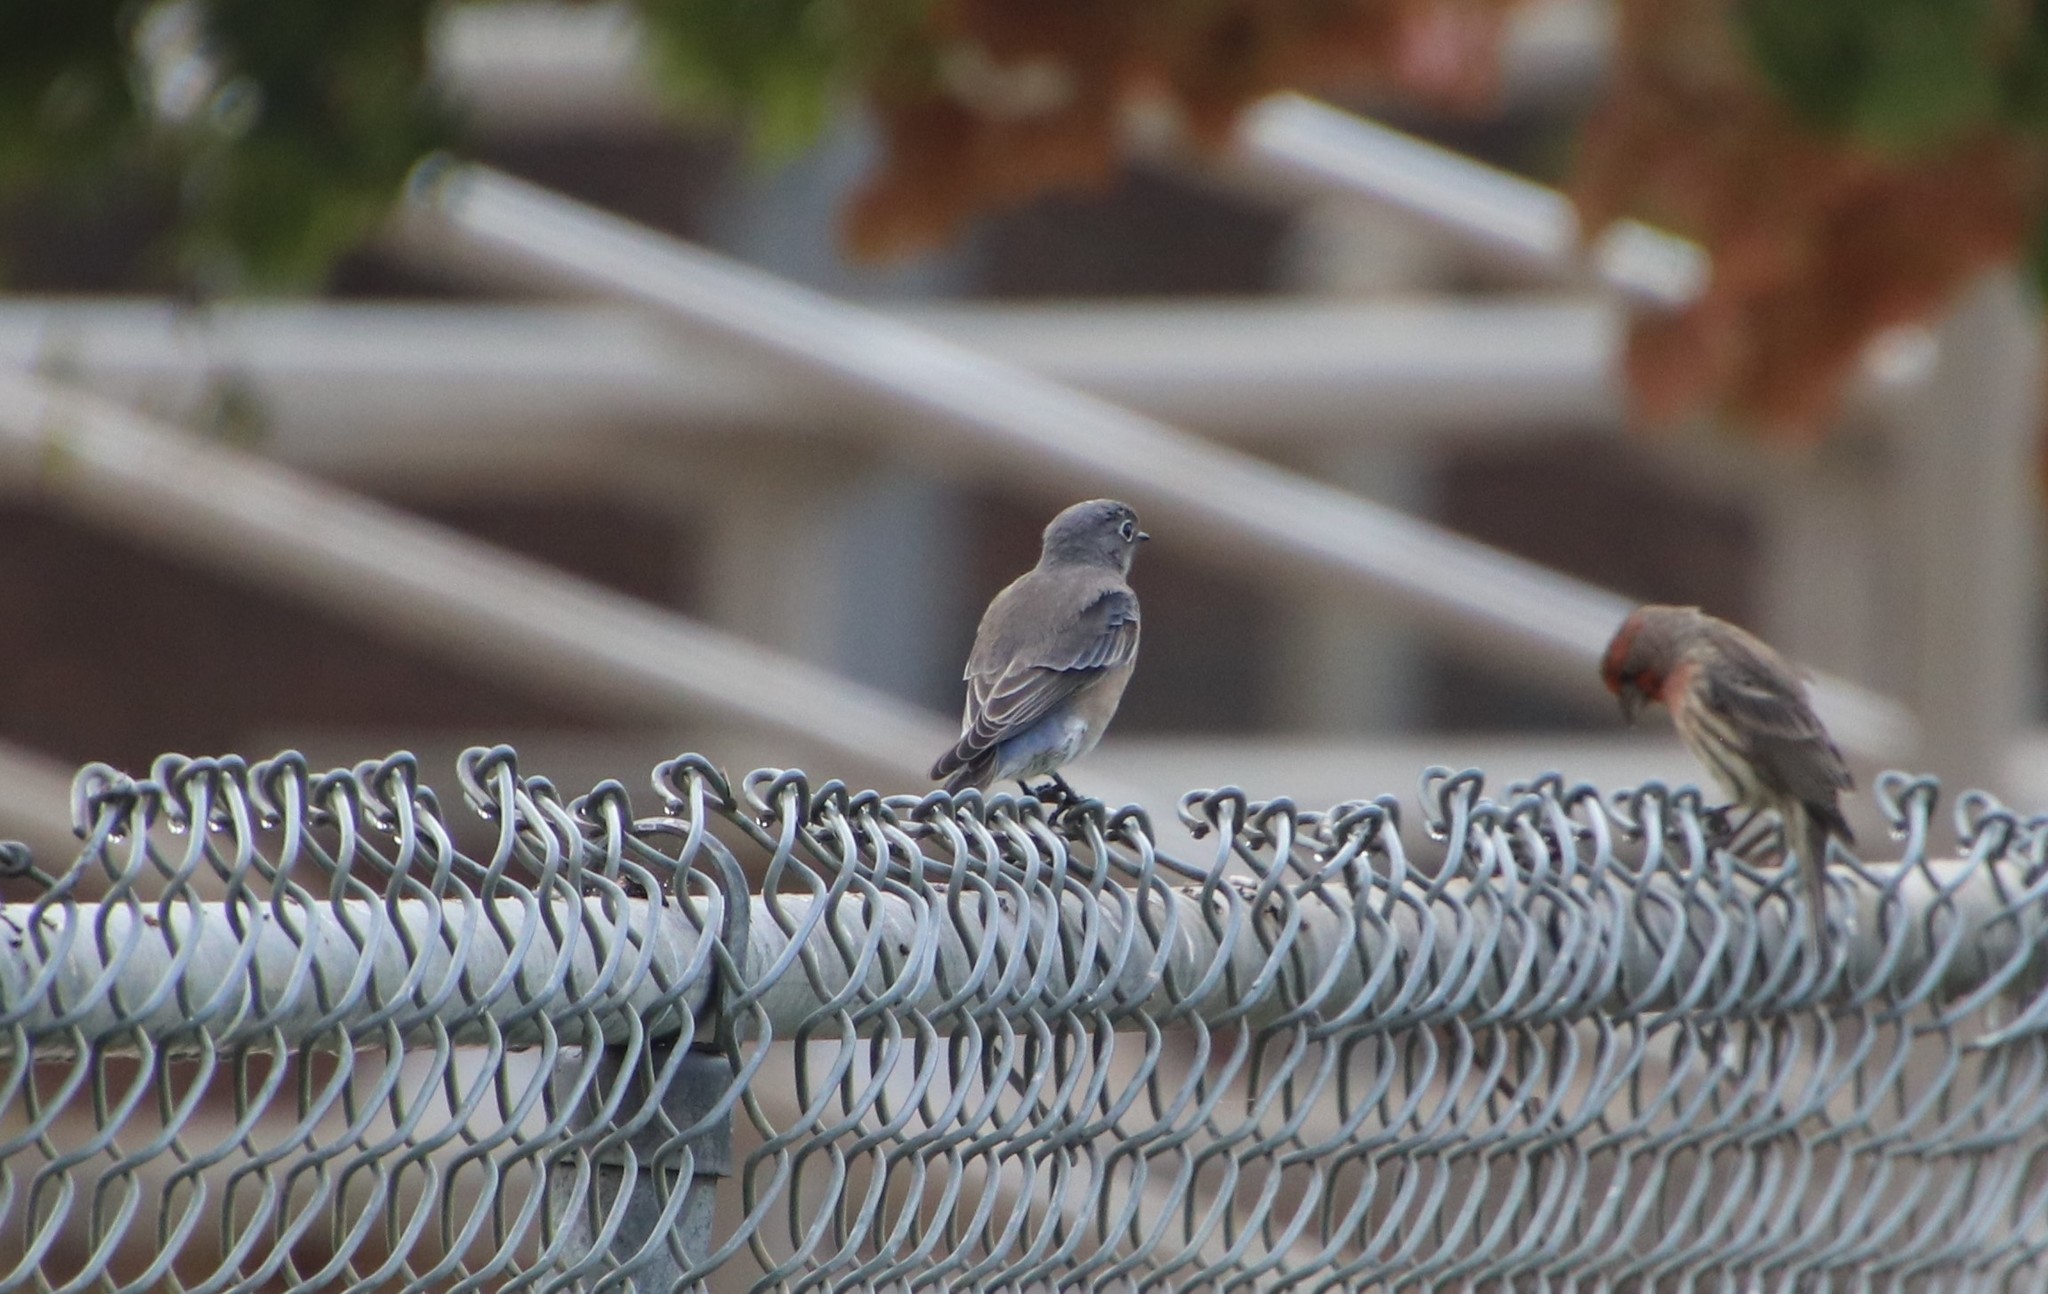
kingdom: Animalia
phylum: Chordata
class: Aves
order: Passeriformes
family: Turdidae
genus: Sialia
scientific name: Sialia mexicana
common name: Western bluebird
